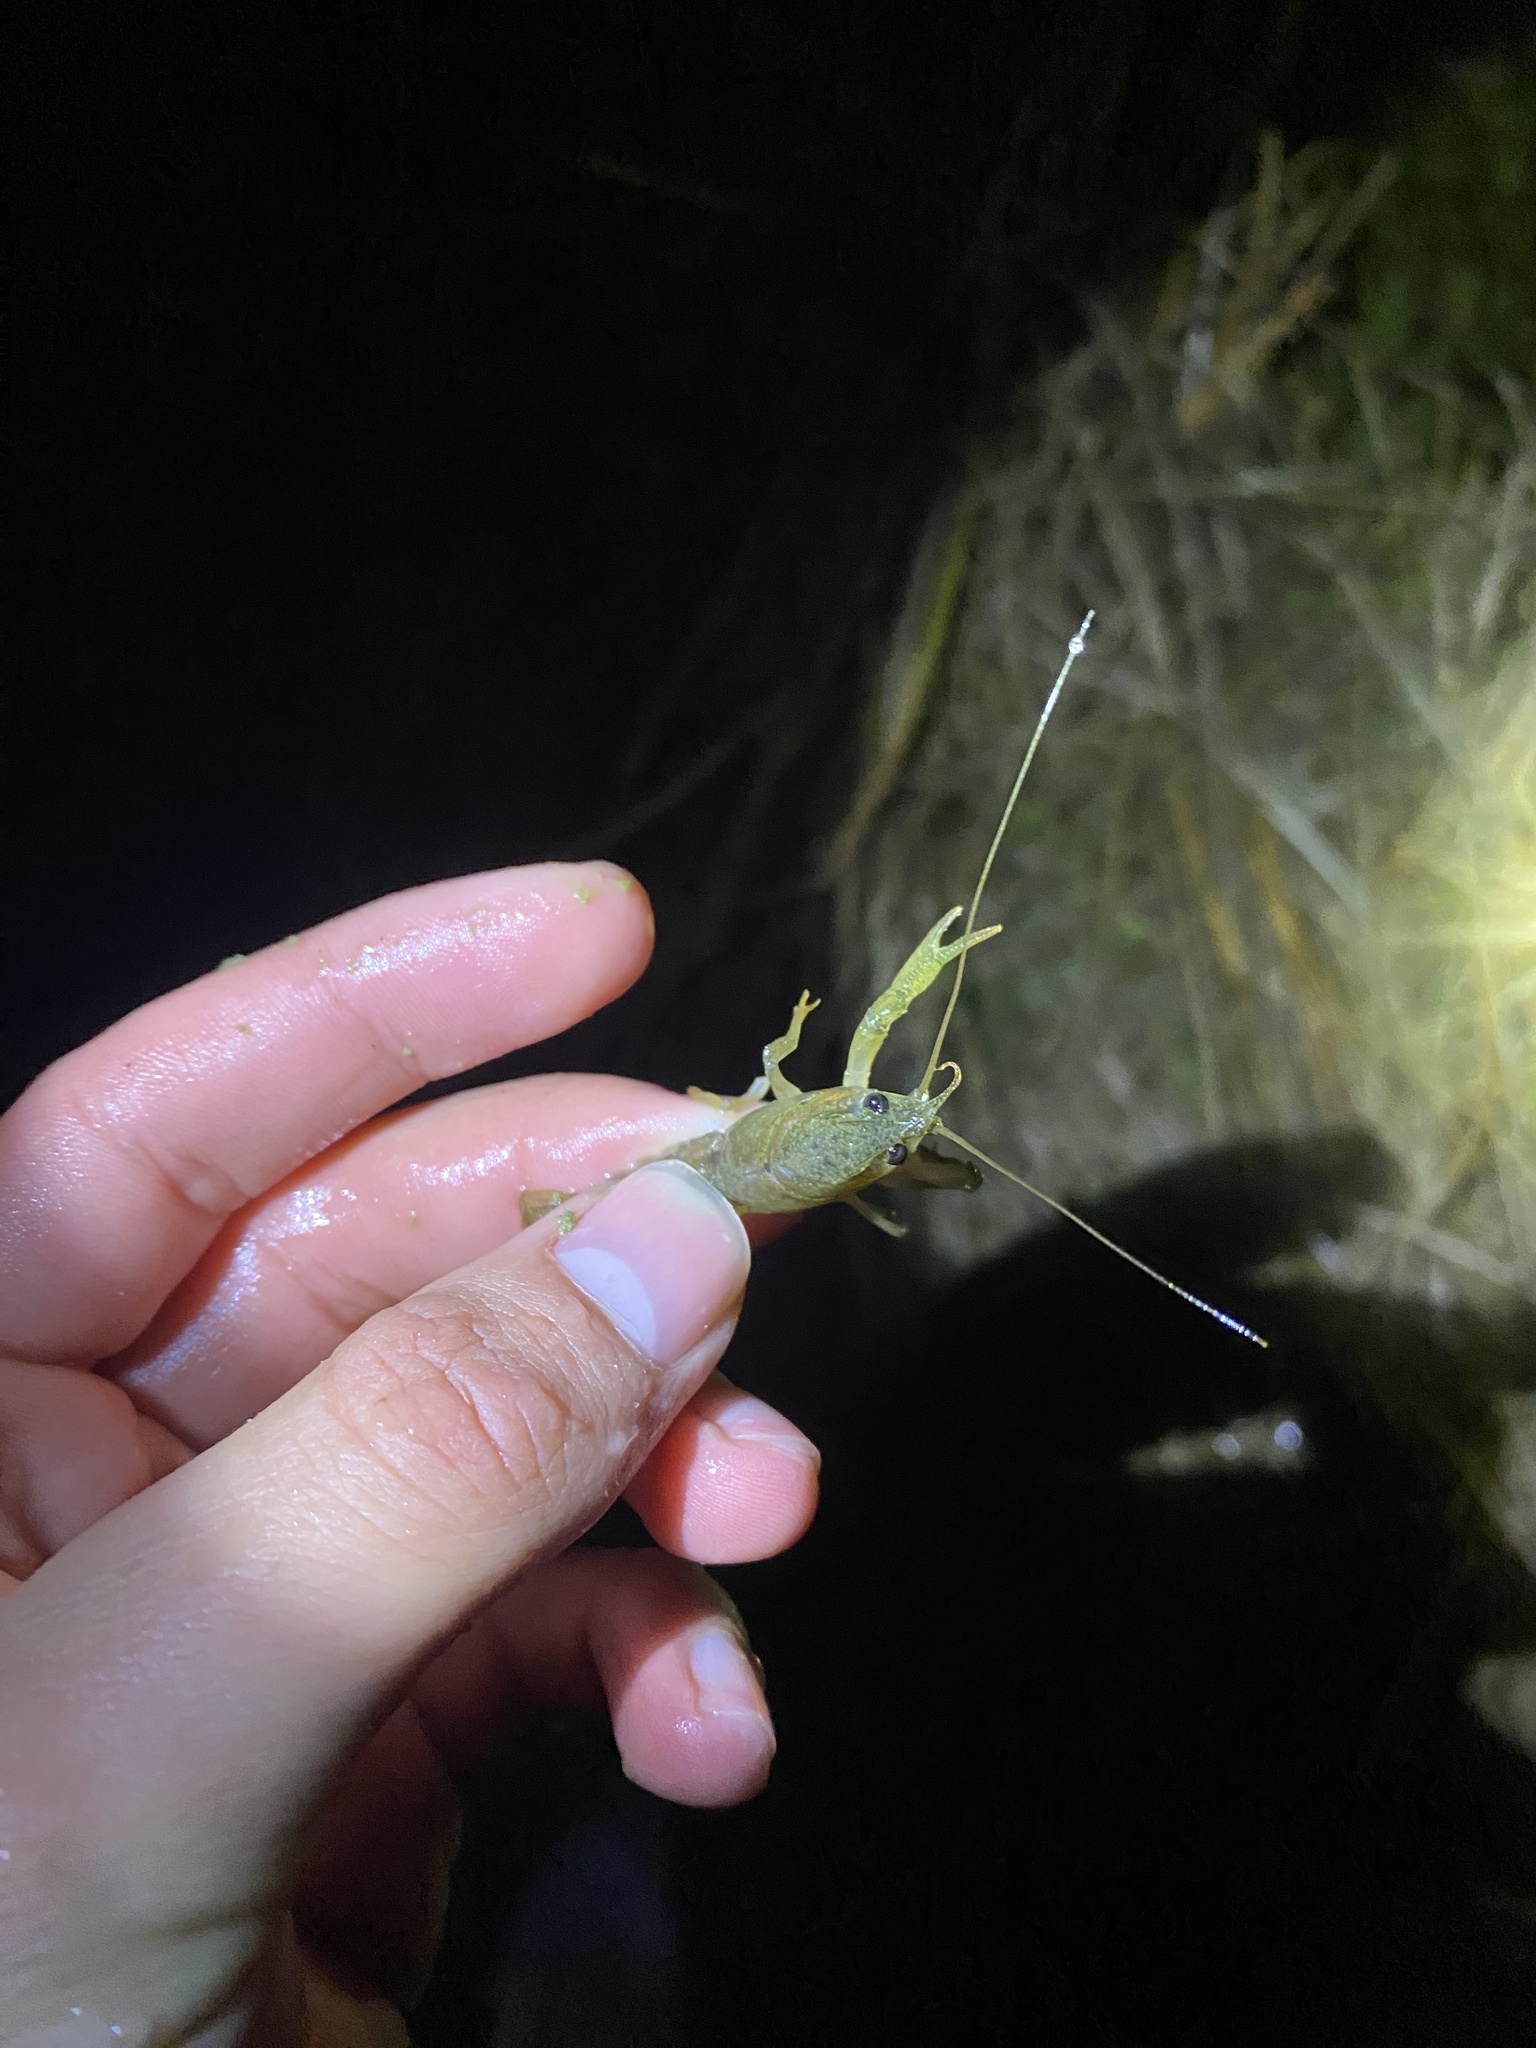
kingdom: Animalia
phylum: Arthropoda
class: Malacostraca
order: Decapoda
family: Cambaridae
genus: Faxonius
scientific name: Faxonius virilis
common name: Virile crayfish
